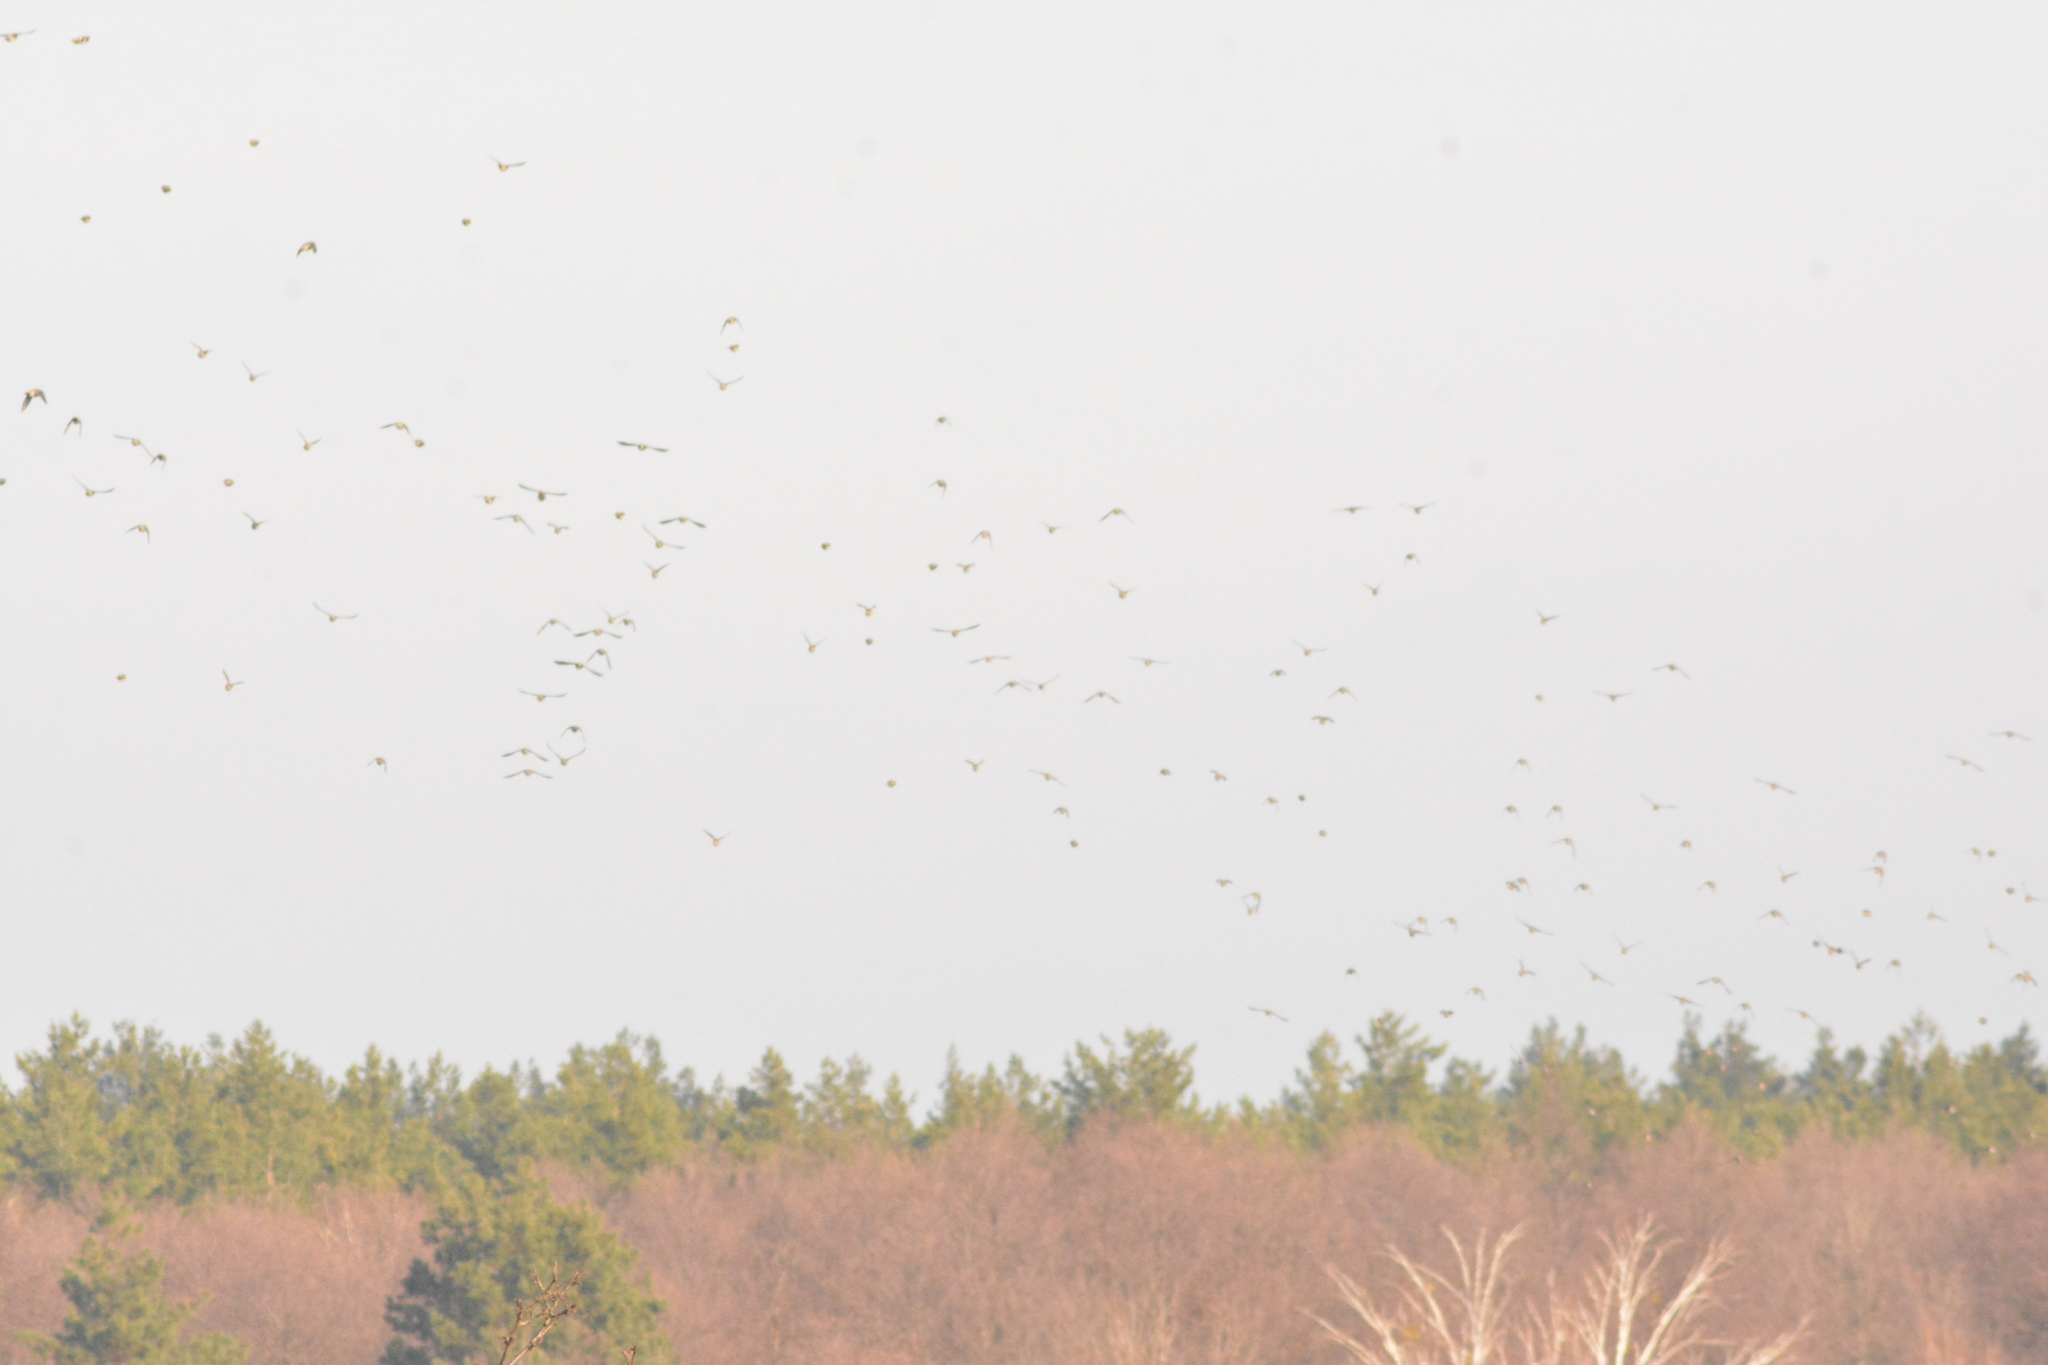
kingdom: Animalia
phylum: Chordata
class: Aves
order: Passeriformes
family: Bombycillidae
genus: Bombycilla
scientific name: Bombycilla garrulus
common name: Bohemian waxwing
